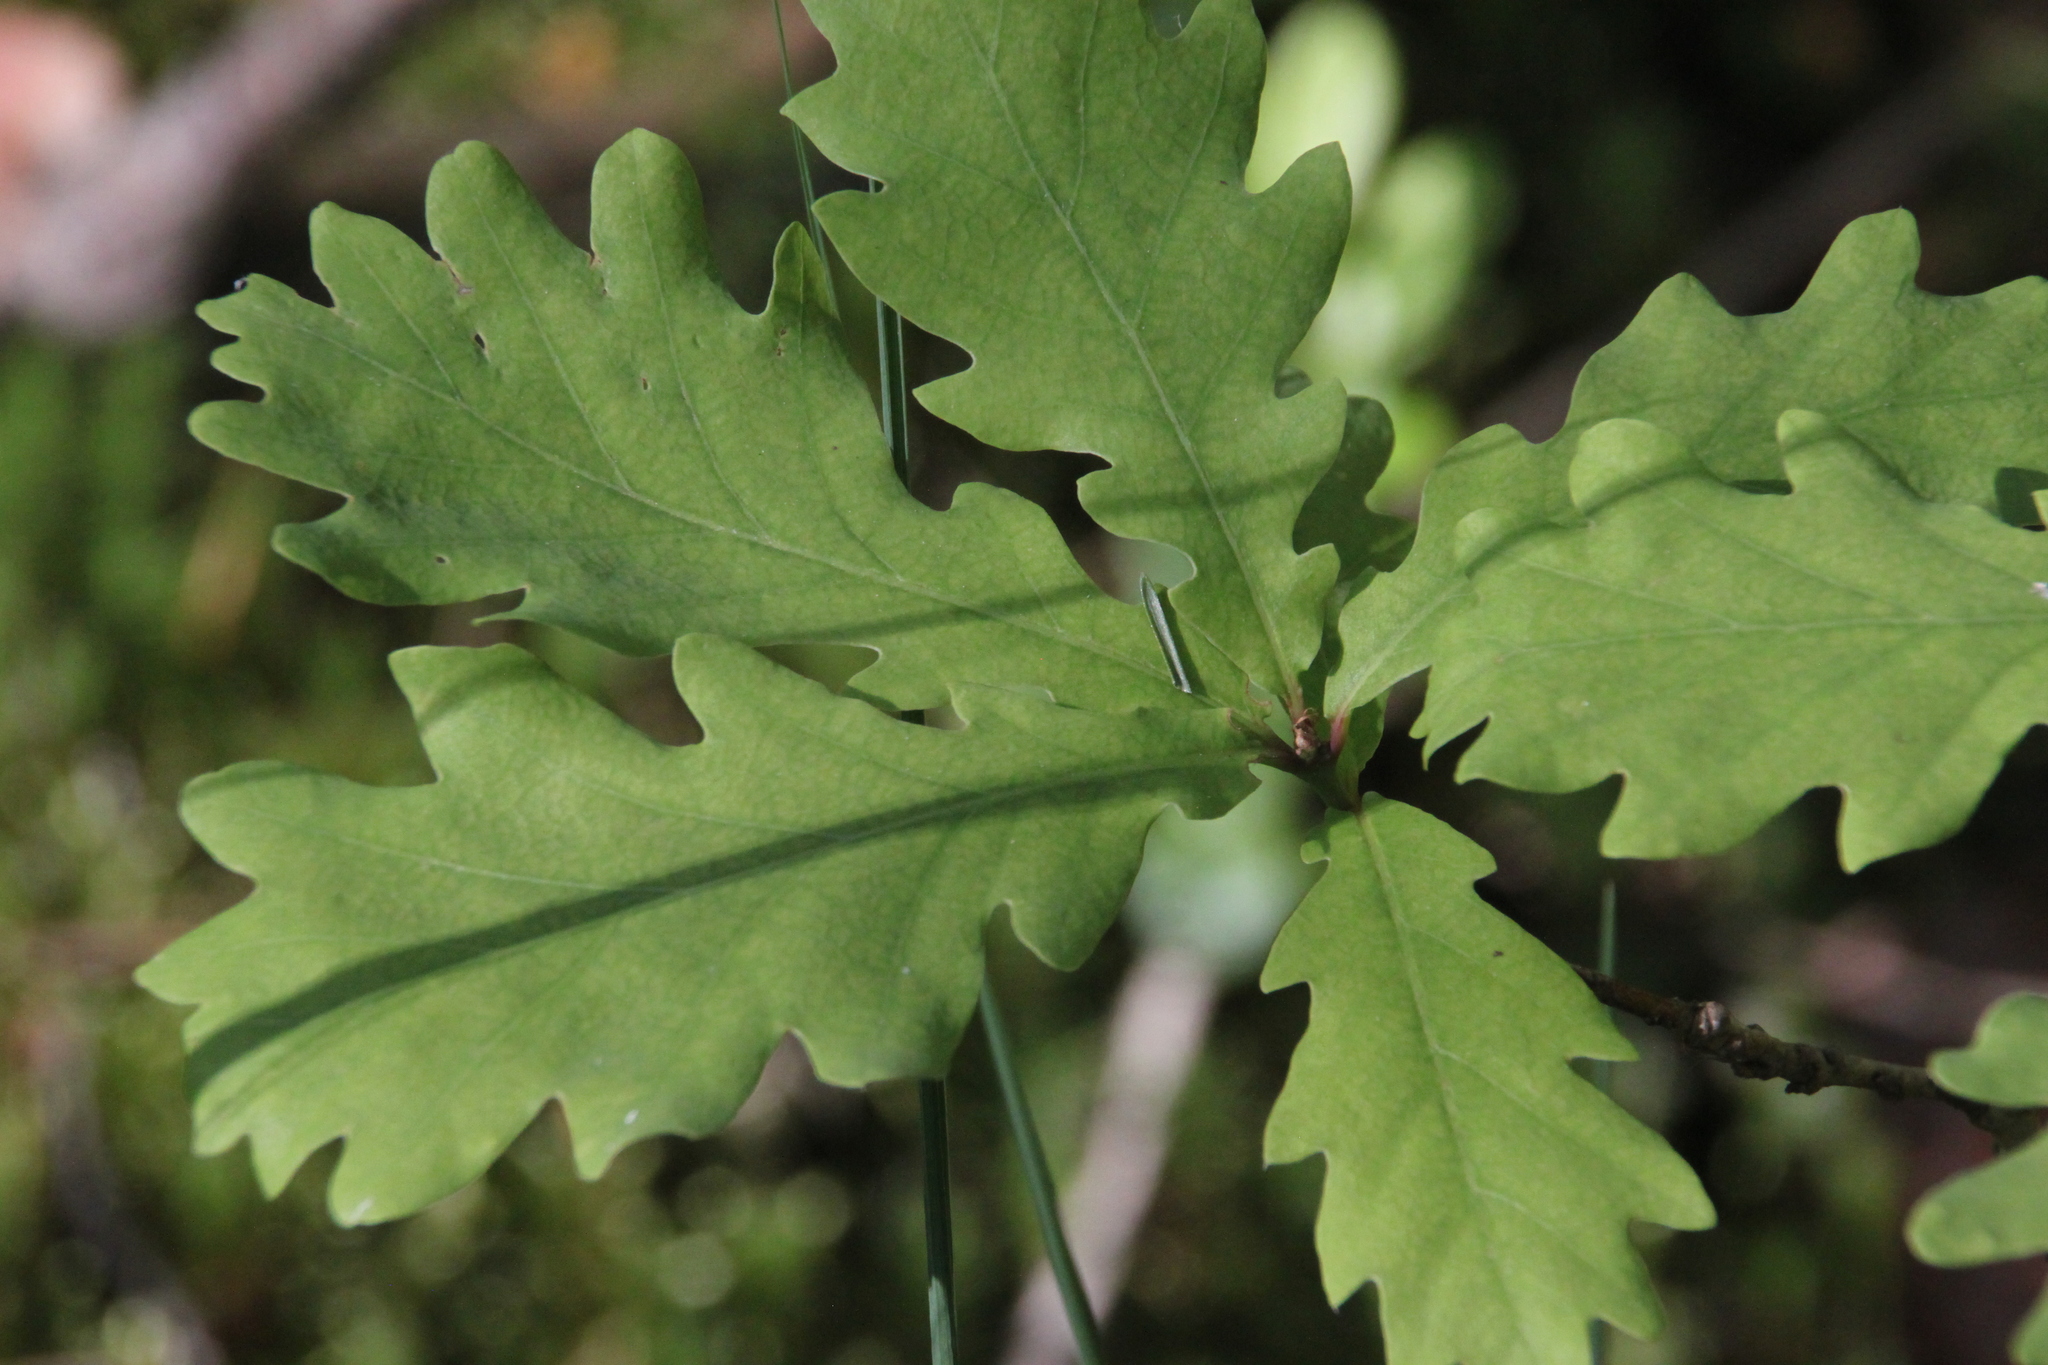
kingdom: Plantae
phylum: Tracheophyta
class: Magnoliopsida
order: Fagales
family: Fagaceae
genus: Quercus
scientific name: Quercus robur
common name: Pedunculate oak
